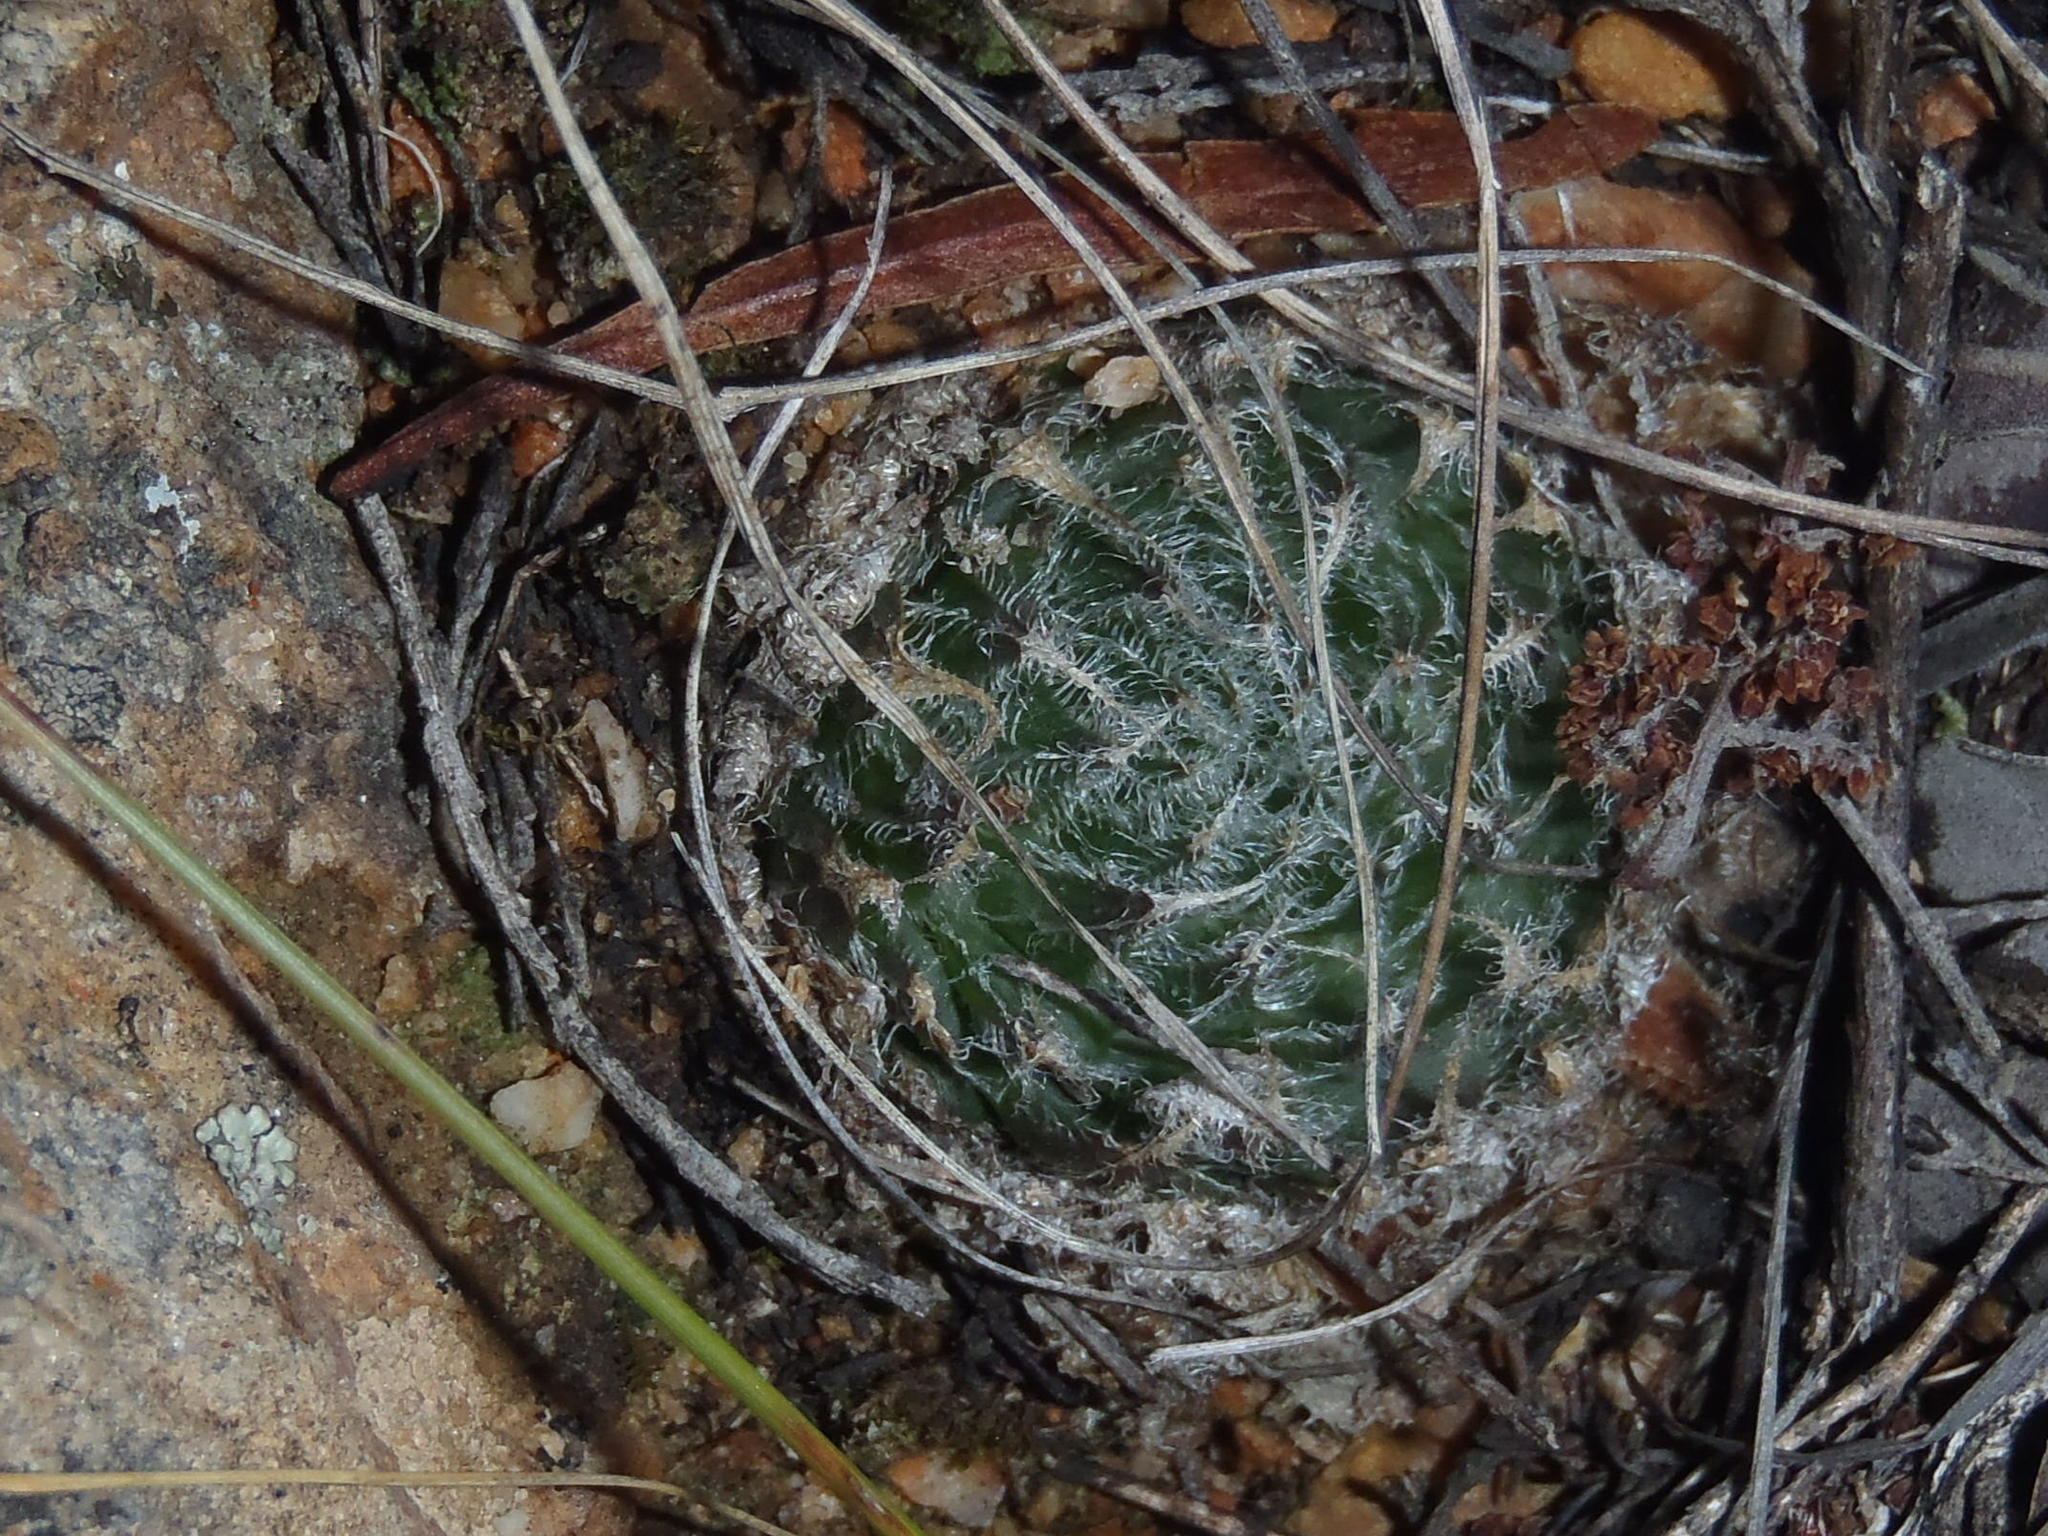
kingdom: Plantae
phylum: Tracheophyta
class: Liliopsida
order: Asparagales
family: Asphodelaceae
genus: Haworthia
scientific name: Haworthia arachnoidea
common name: Cobweb-aloe
